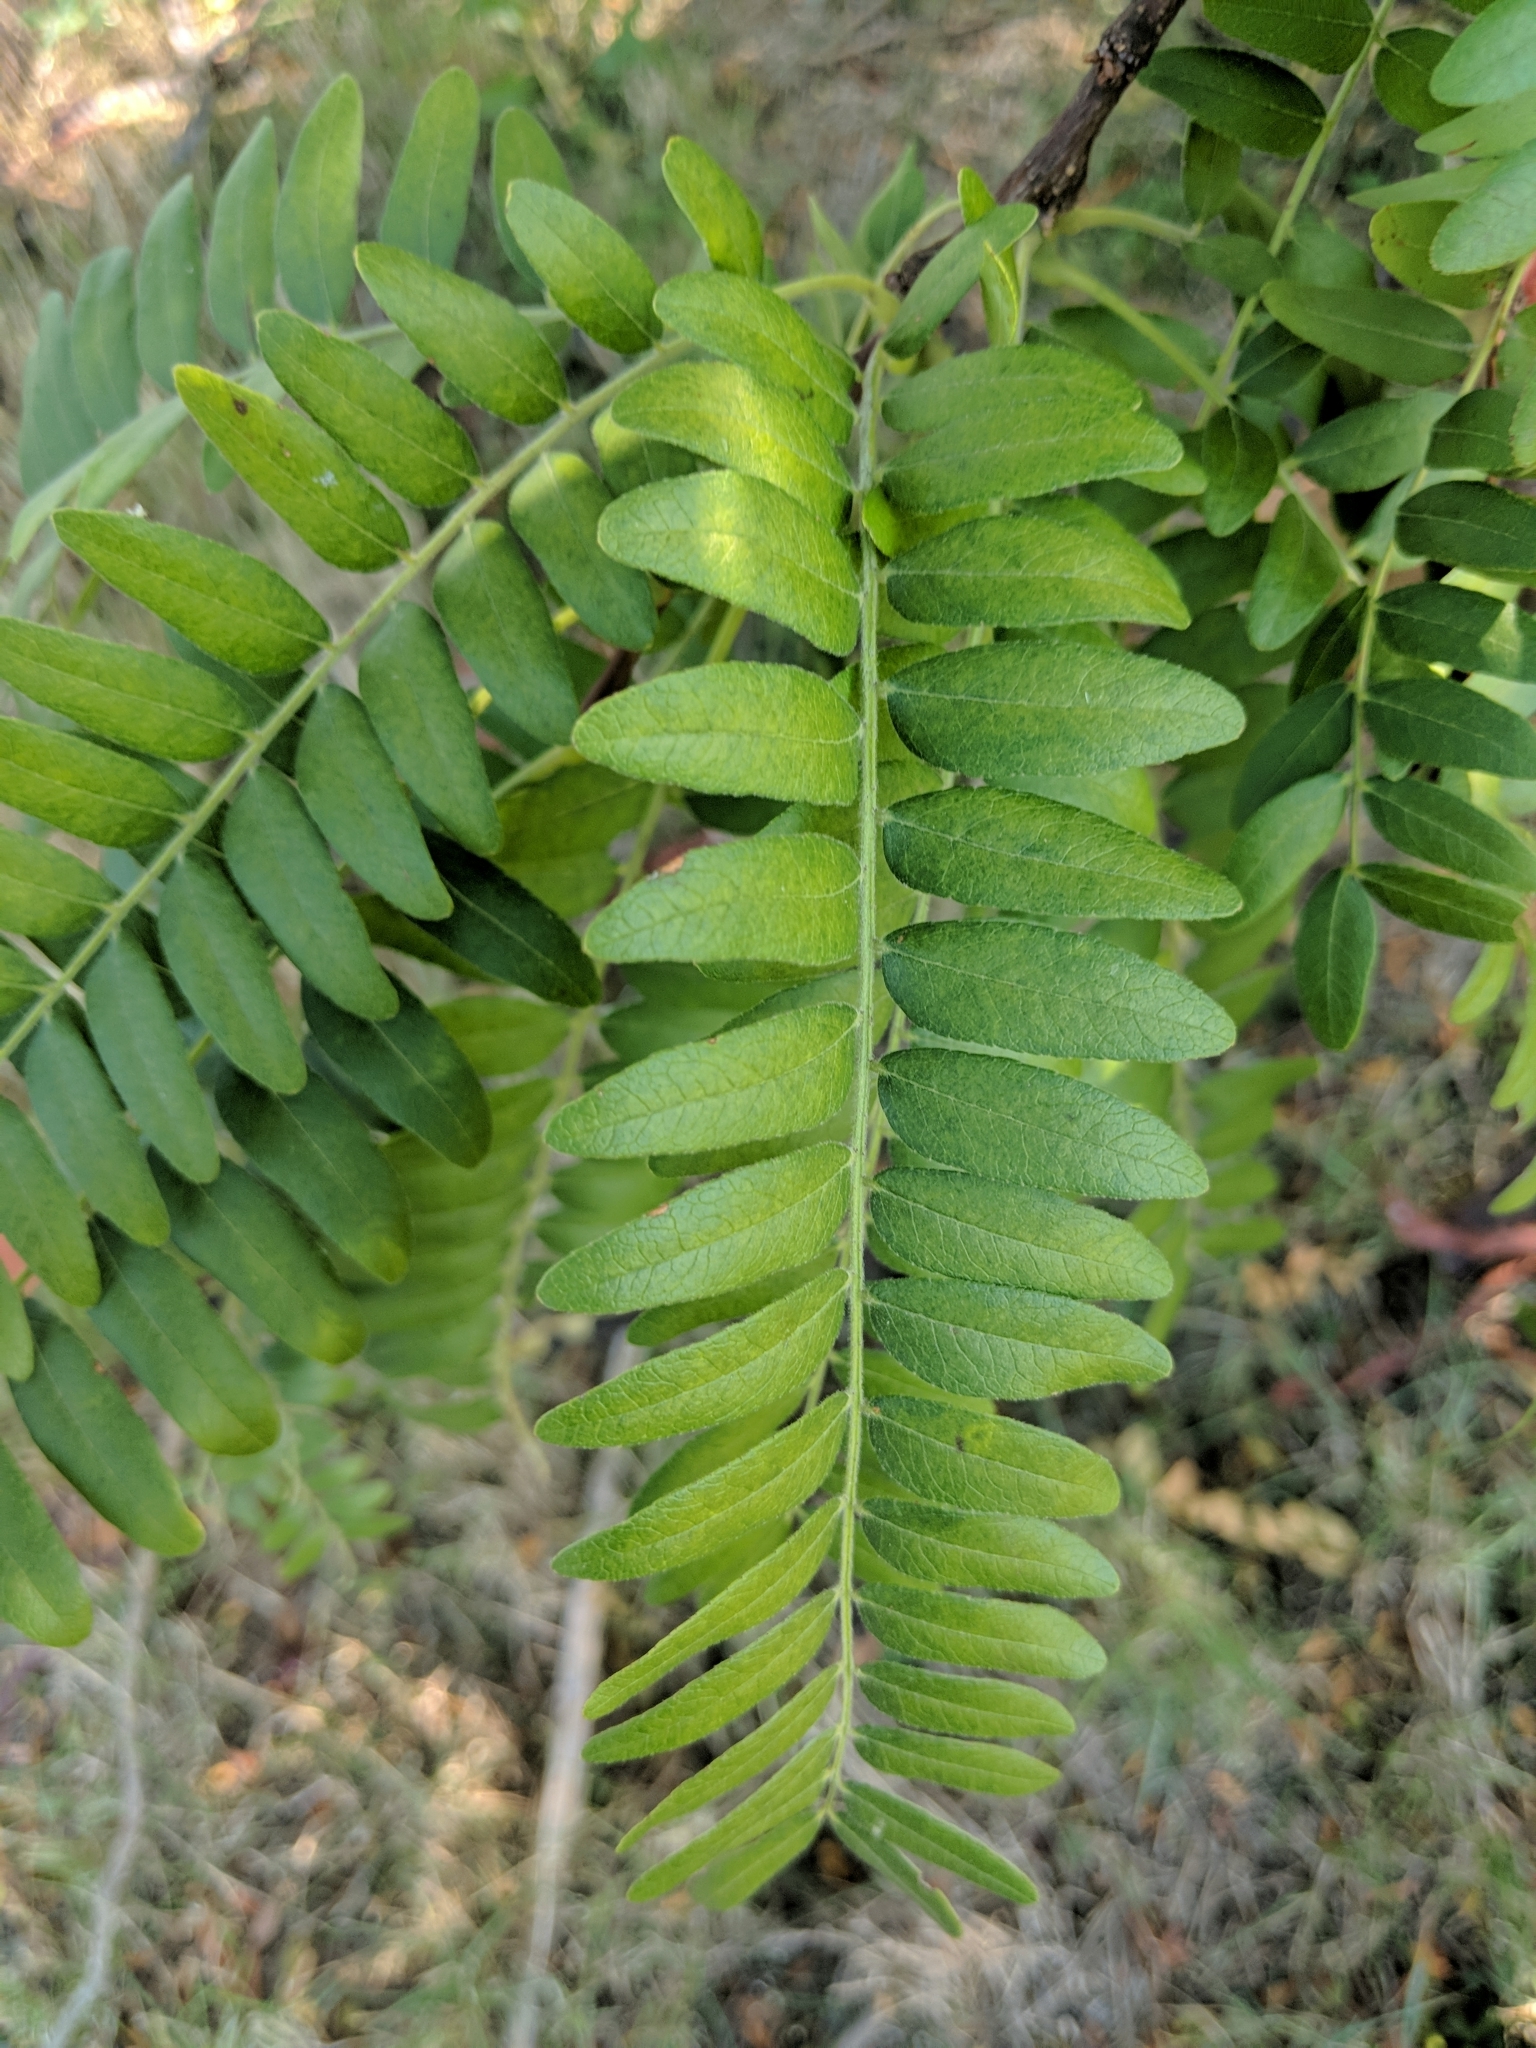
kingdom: Plantae
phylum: Tracheophyta
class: Magnoliopsida
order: Fabales
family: Fabaceae
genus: Gleditsia
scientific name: Gleditsia triacanthos
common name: Common honeylocust
